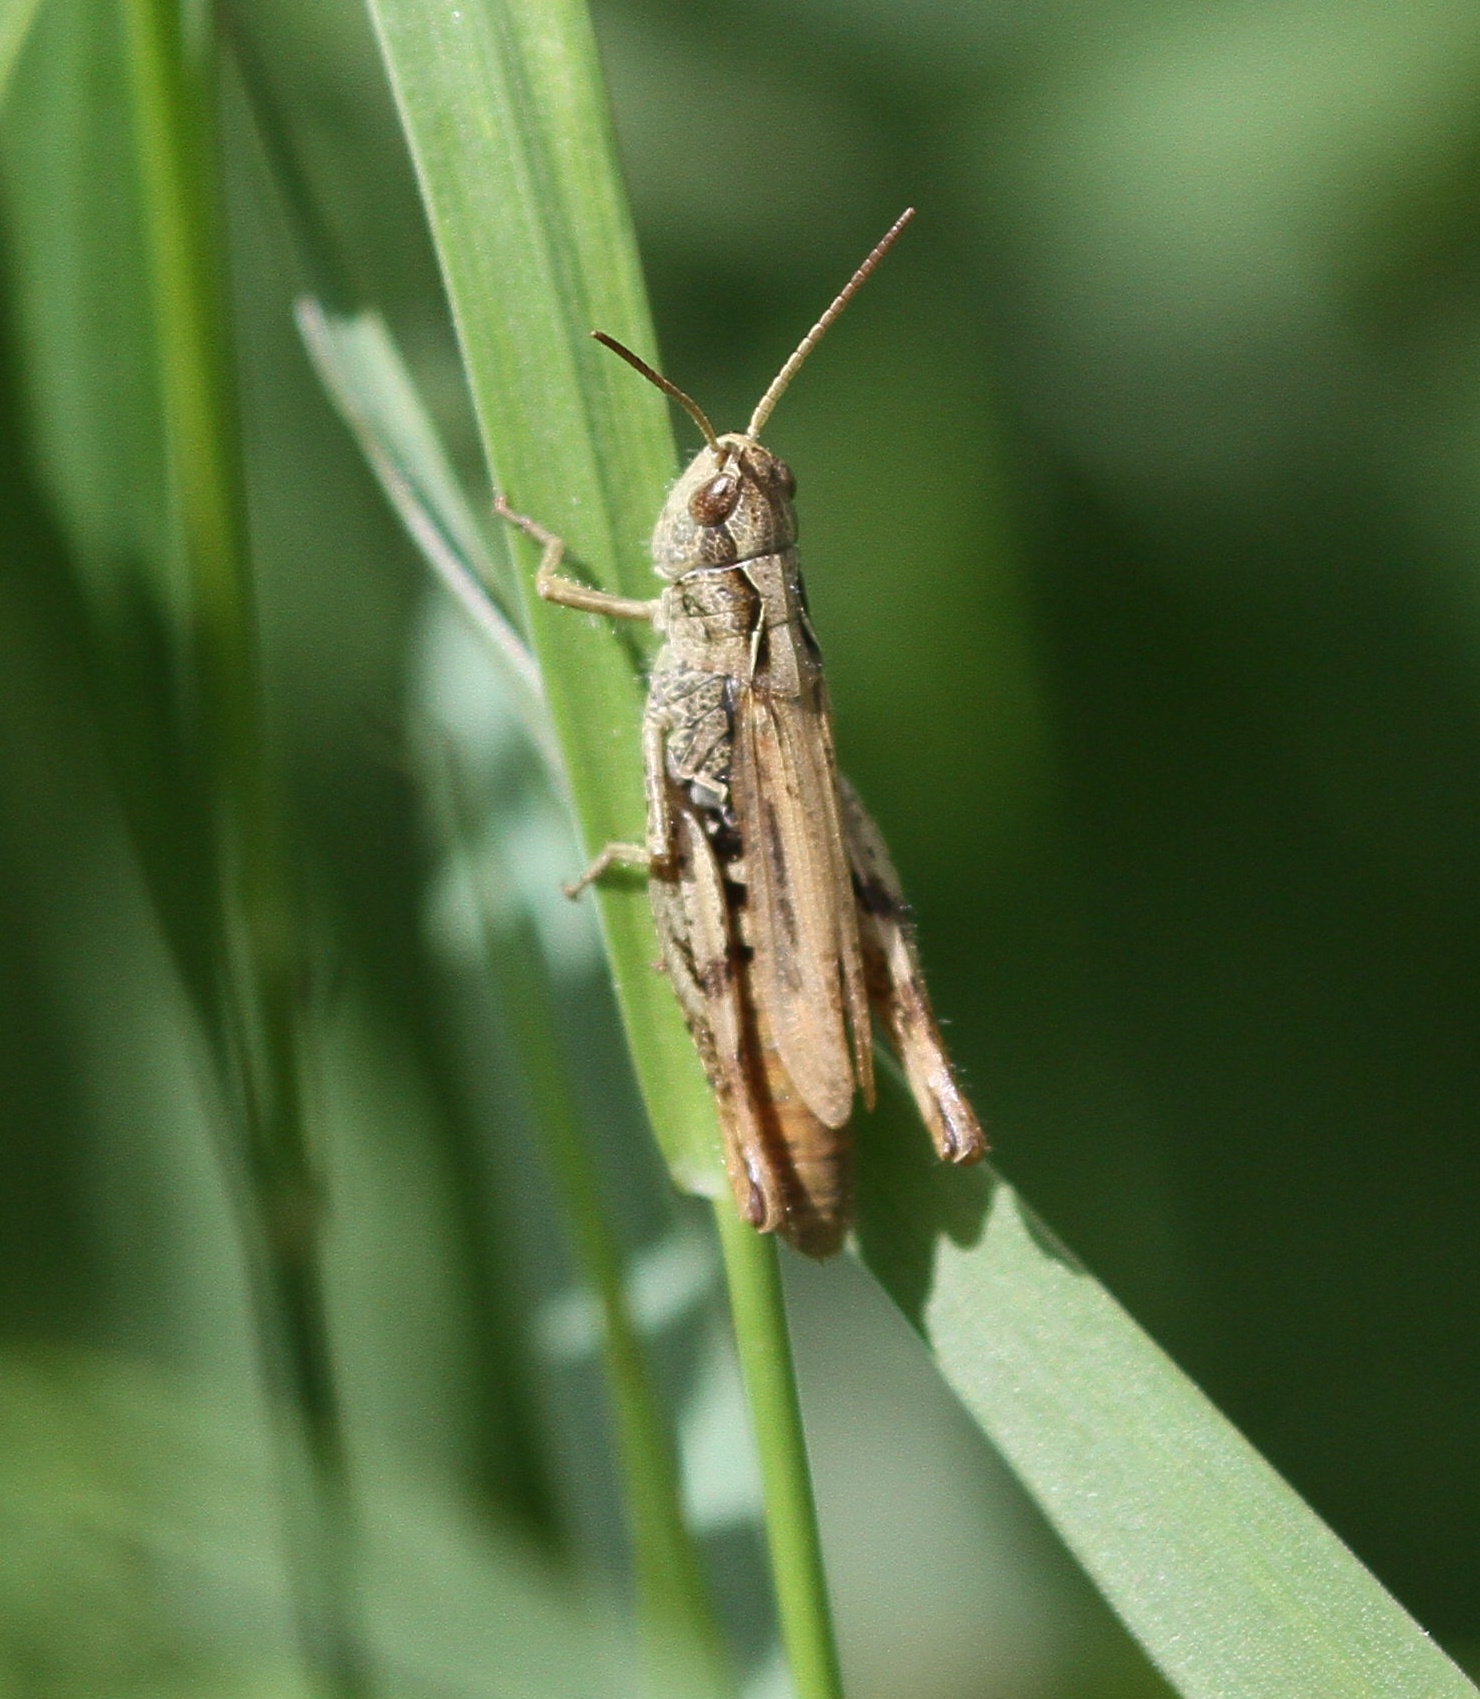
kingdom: Animalia
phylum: Arthropoda
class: Insecta
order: Orthoptera
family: Acrididae
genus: Chorthippus
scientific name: Chorthippus apricarius
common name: Upland field grasshopper
